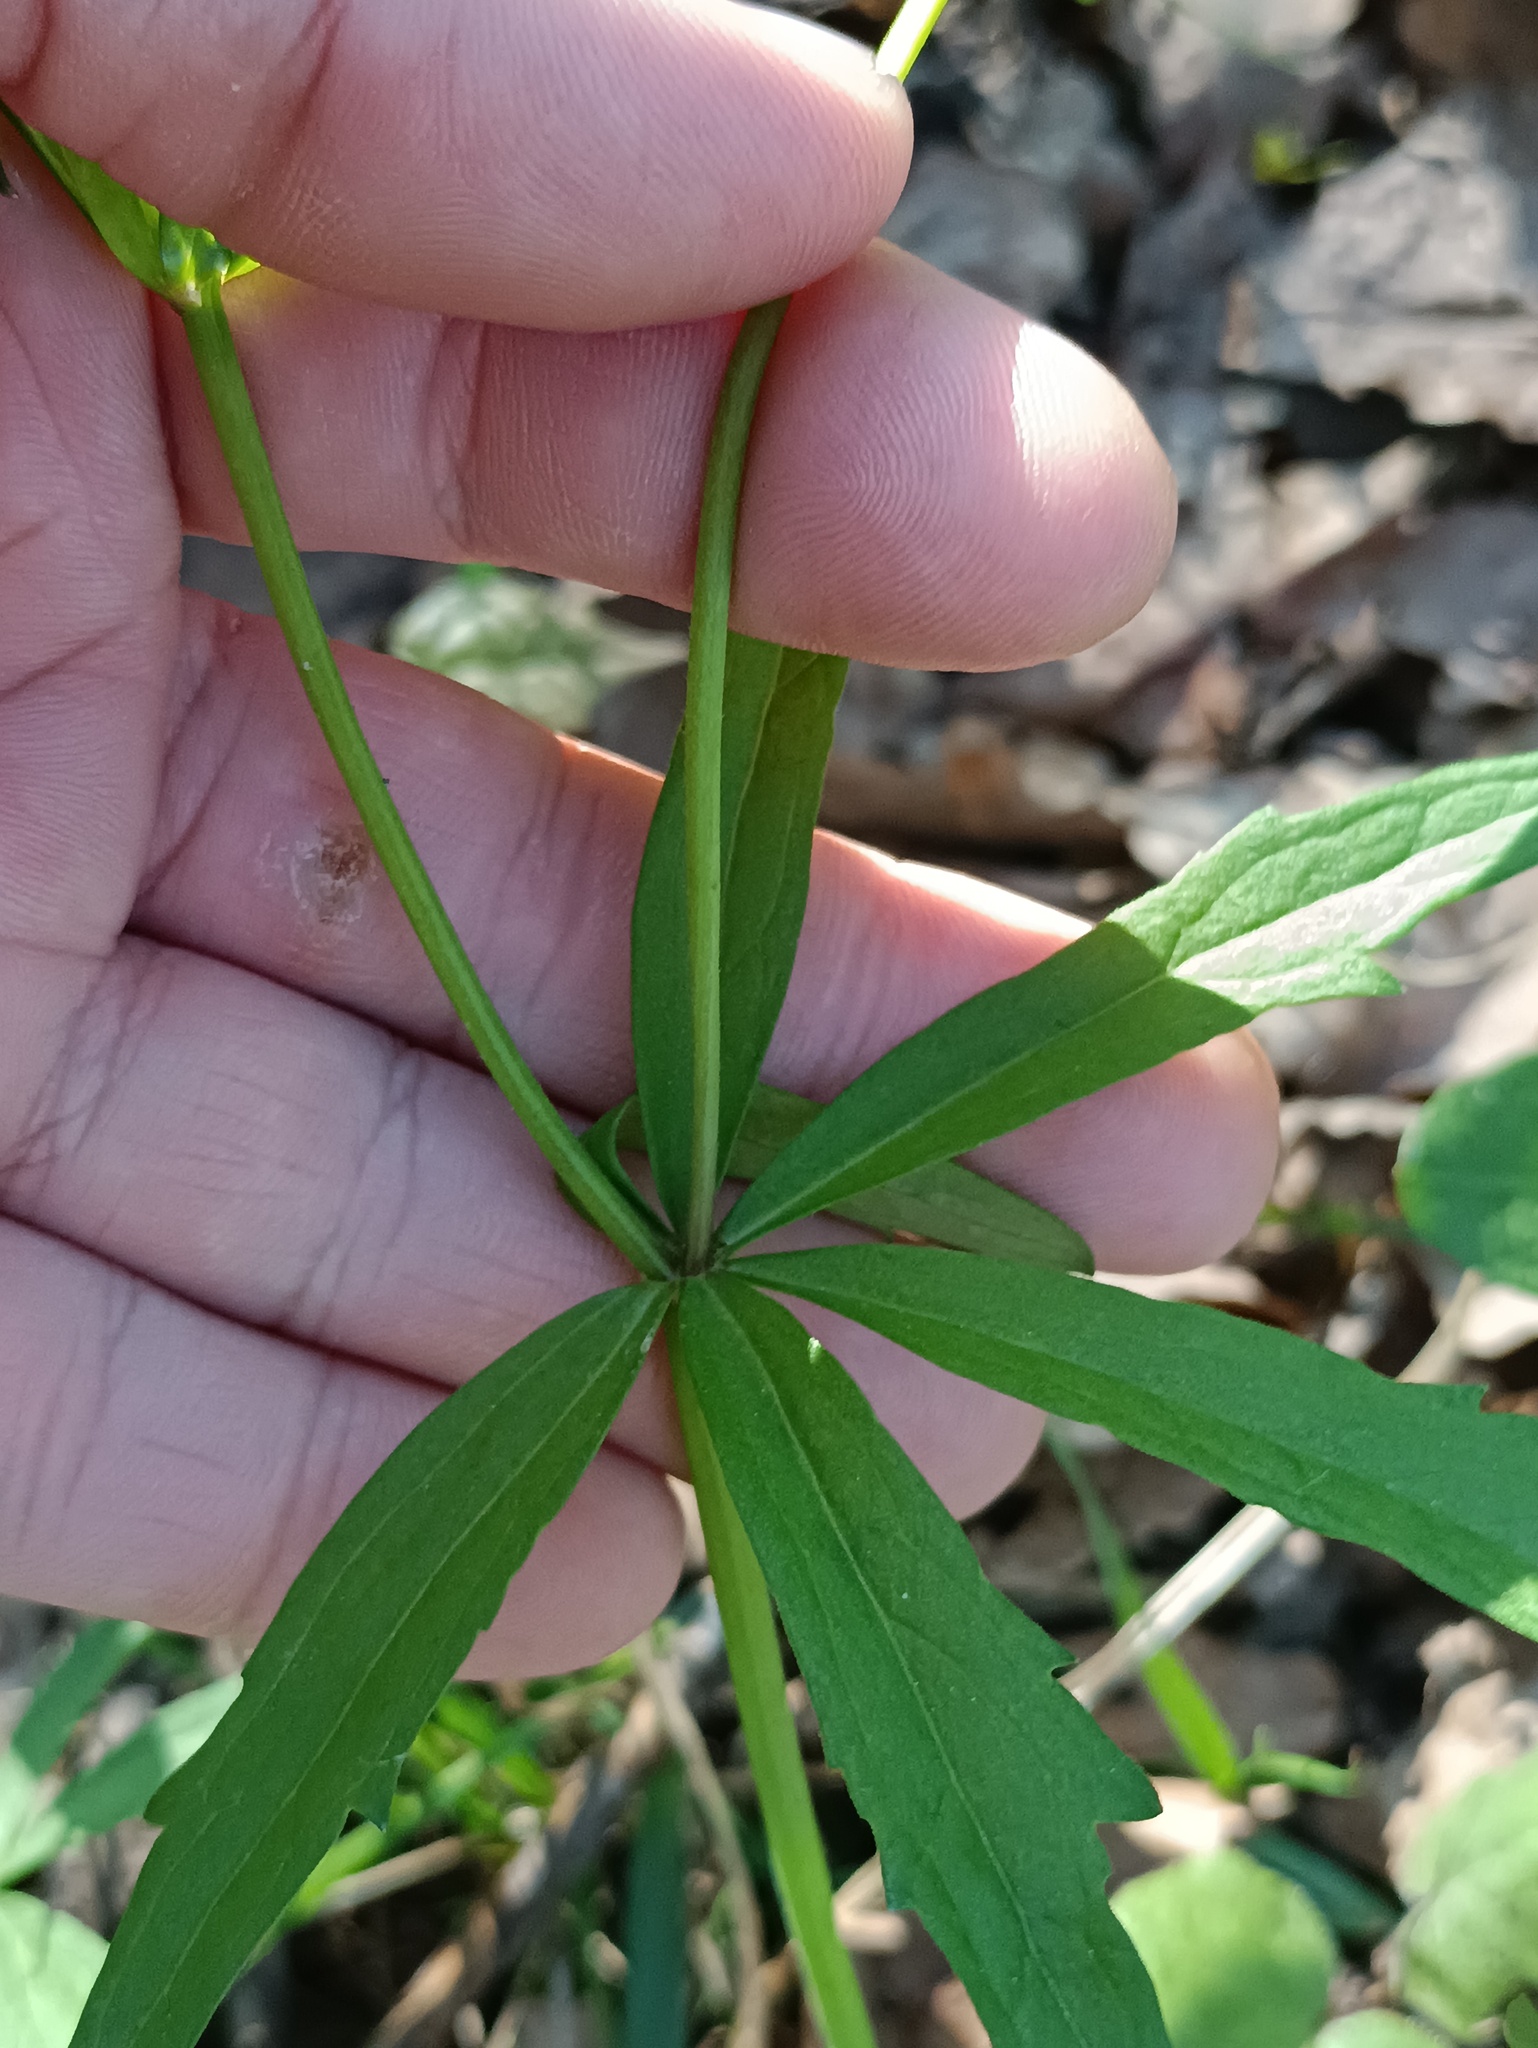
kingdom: Plantae
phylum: Tracheophyta
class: Magnoliopsida
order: Ranunculales
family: Ranunculaceae
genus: Ranunculus
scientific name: Ranunculus cassubicus
